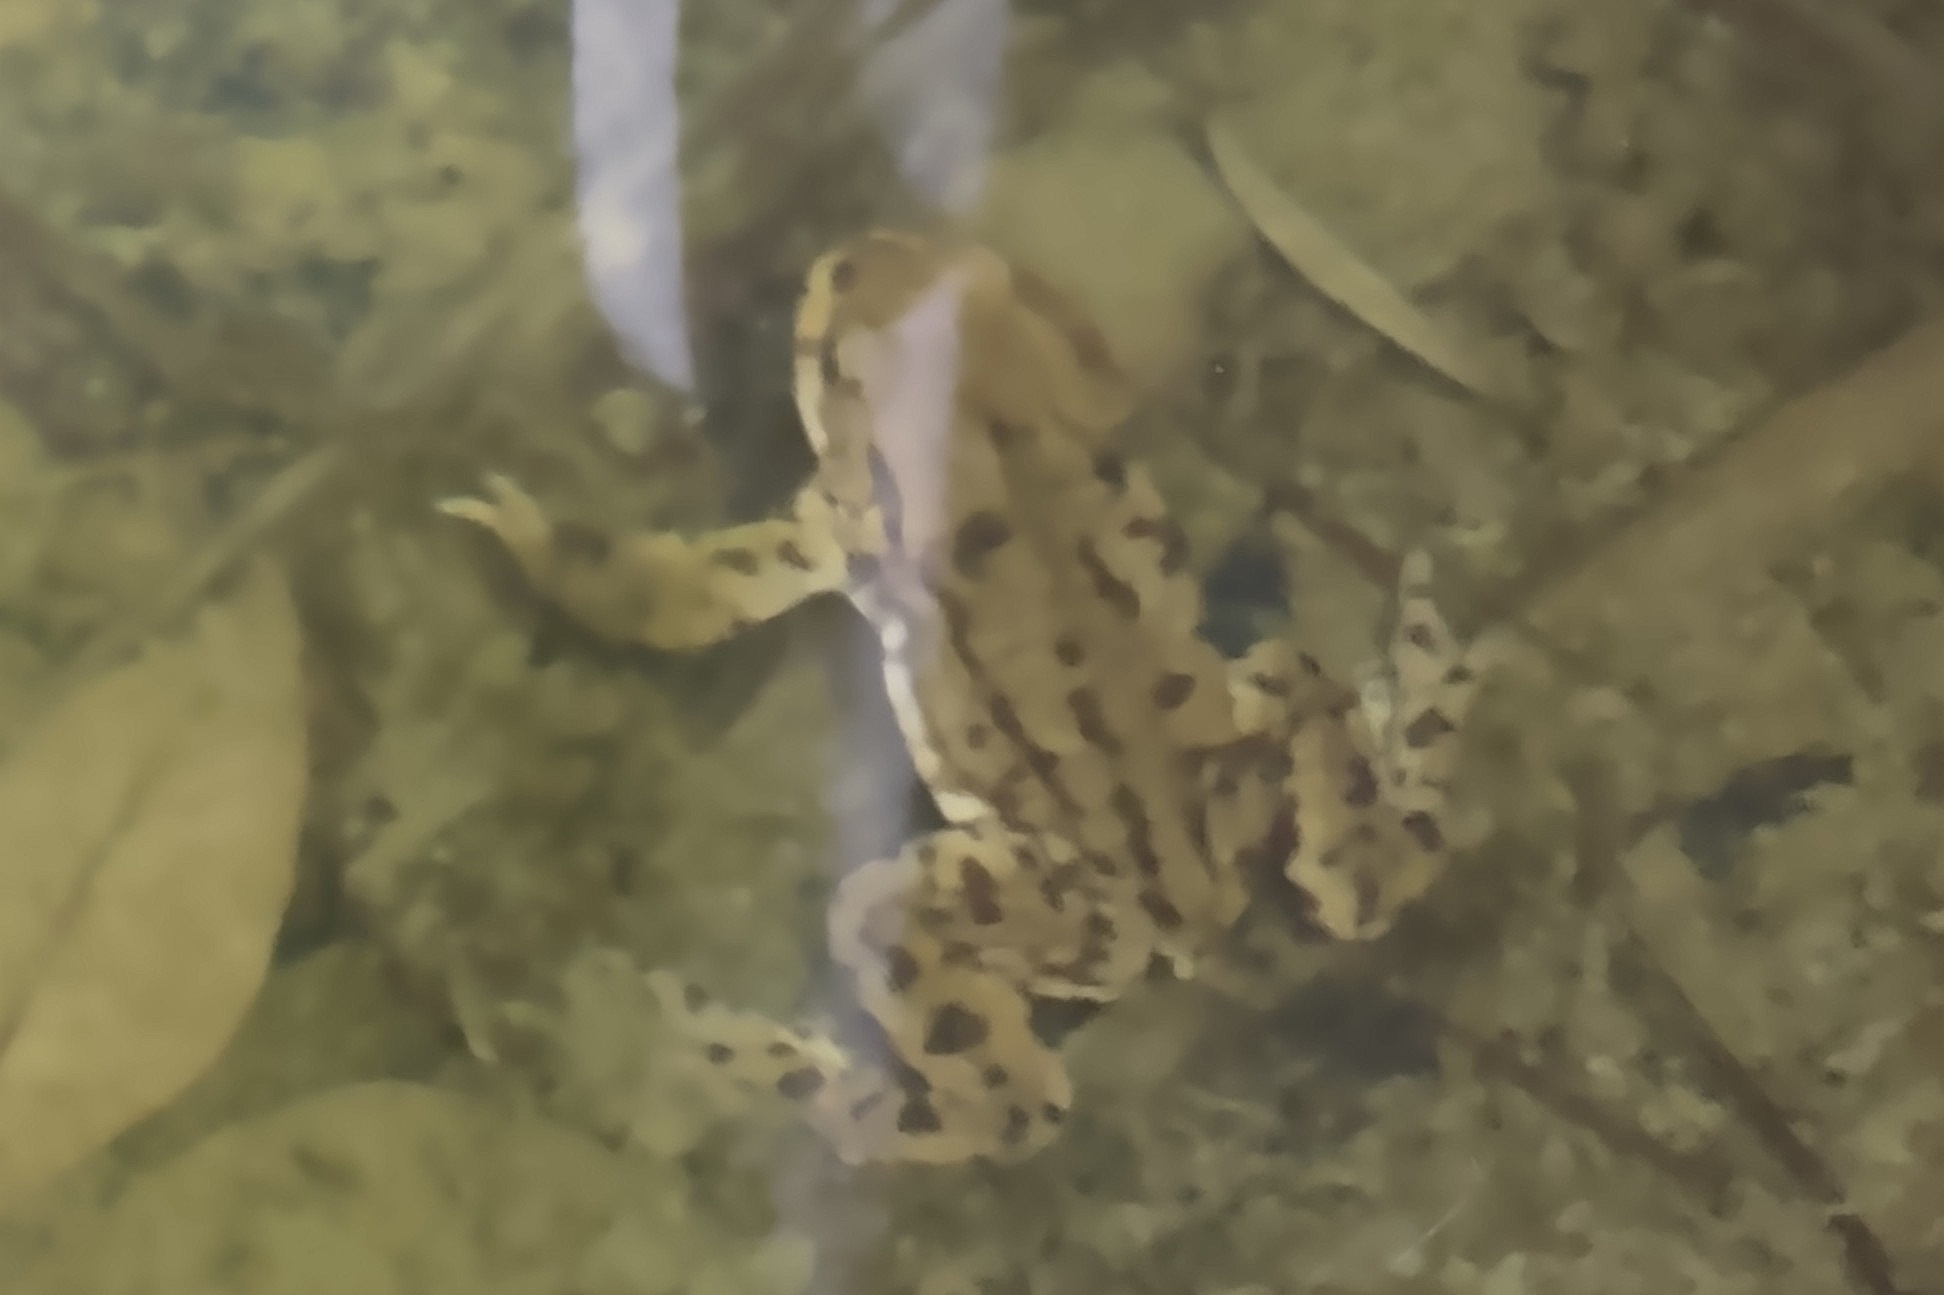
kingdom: Animalia
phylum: Chordata
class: Amphibia
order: Anura
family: Bufonidae
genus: Bufo
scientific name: Bufo bufo
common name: Common toad
